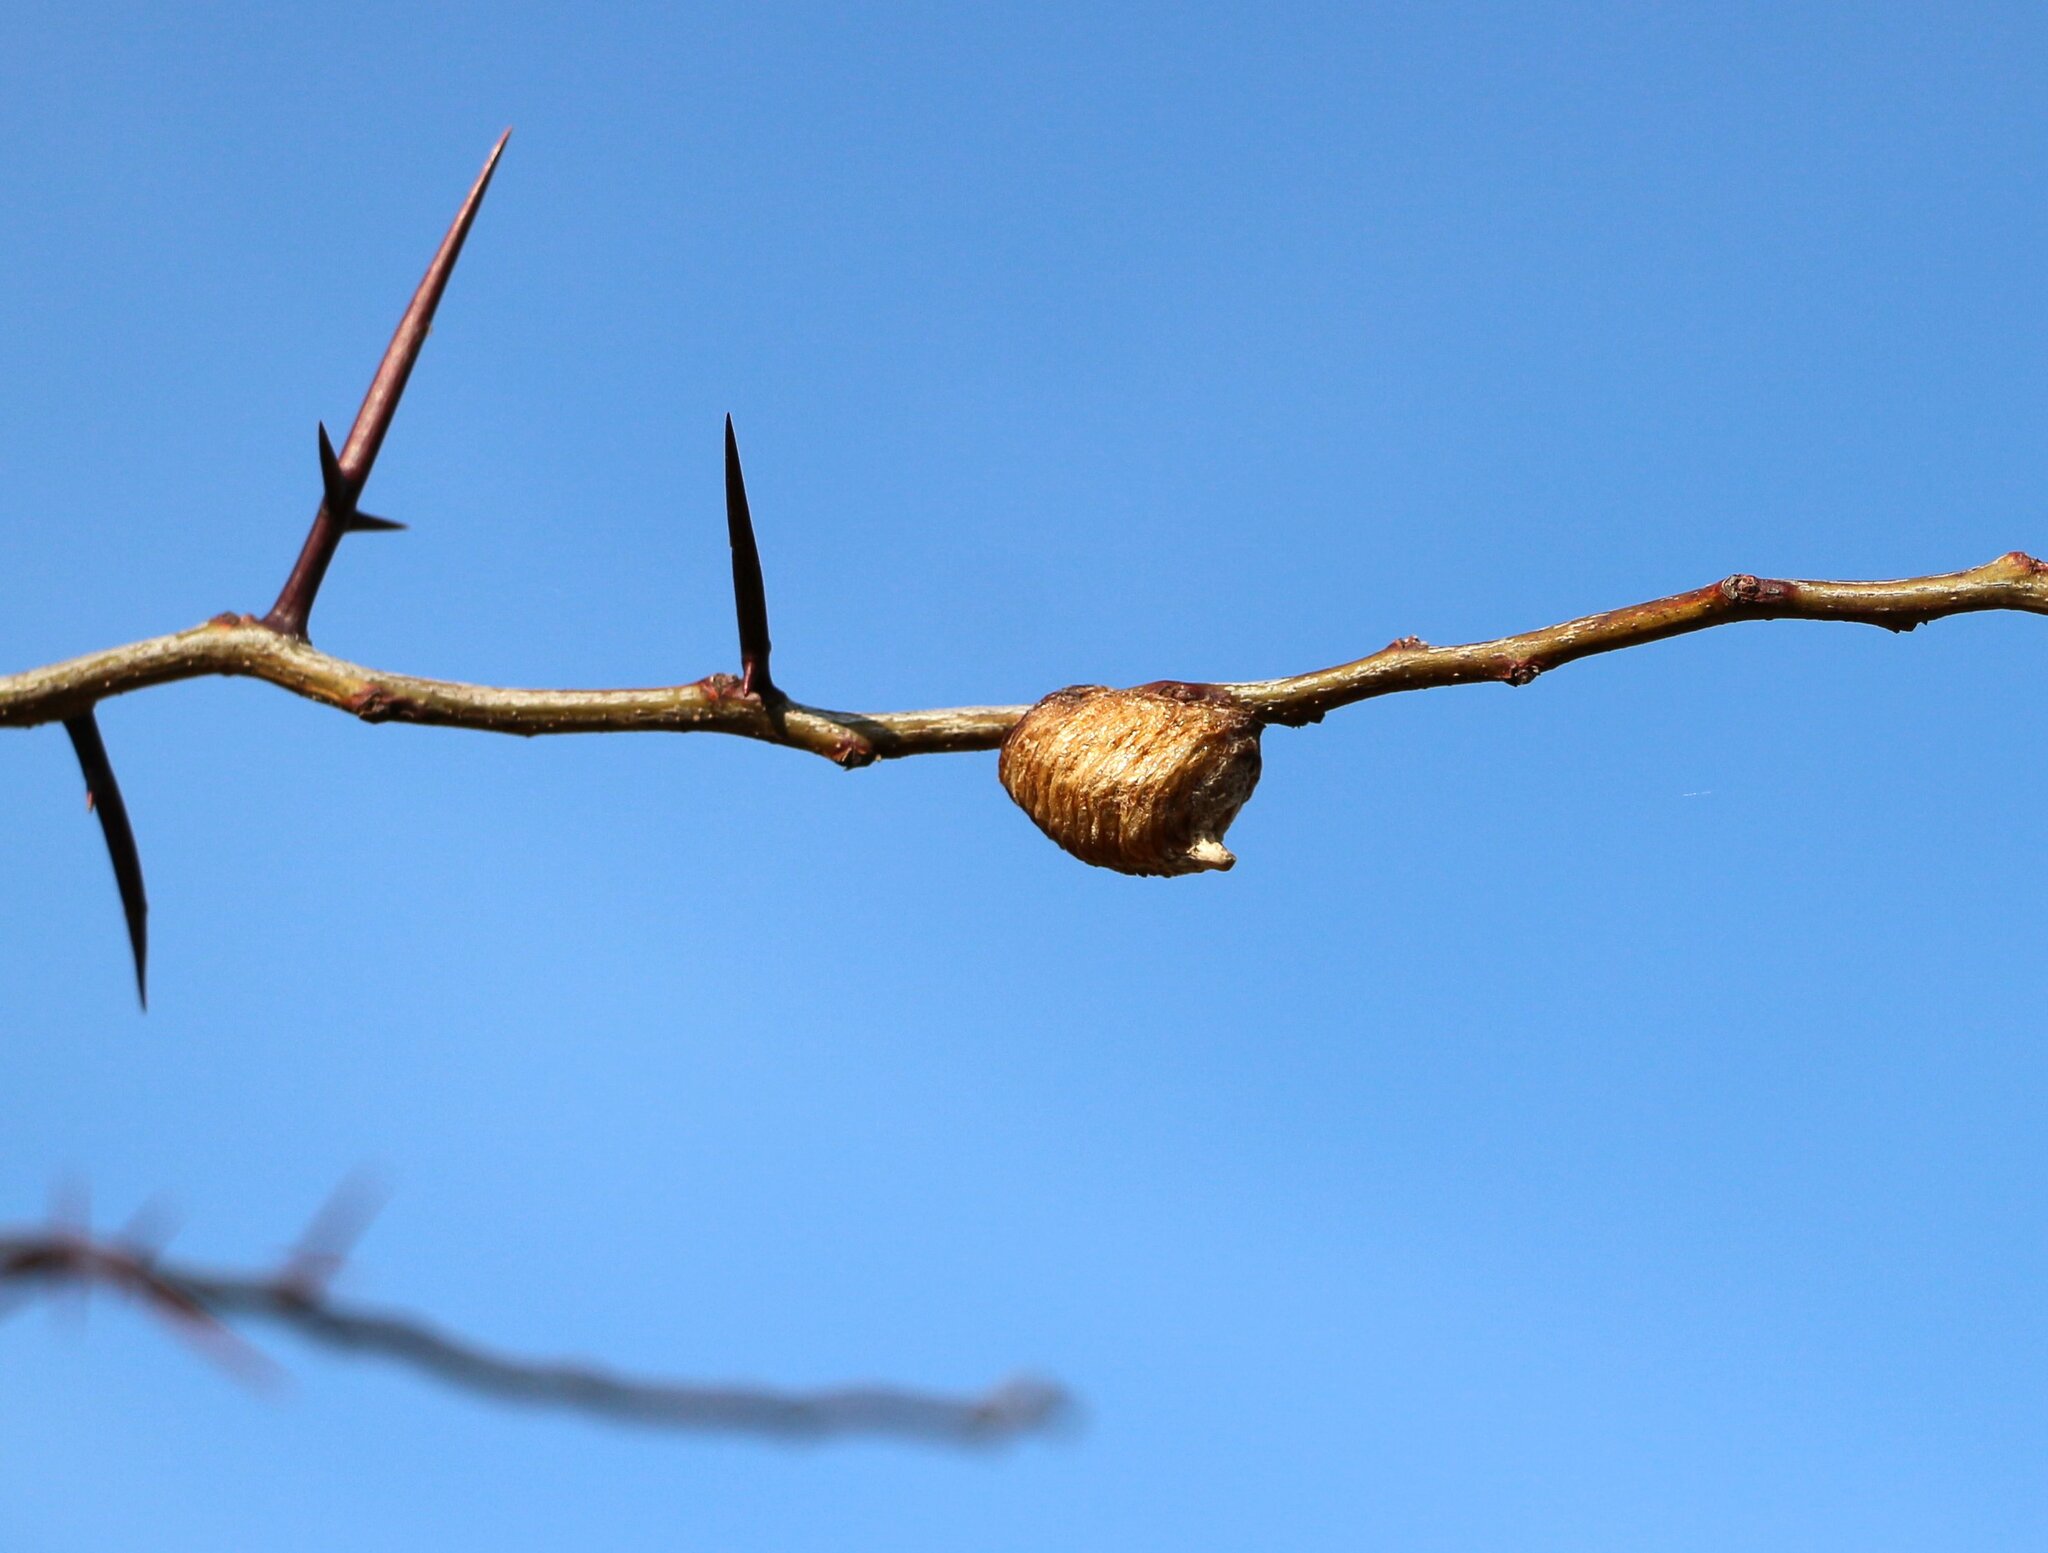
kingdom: Animalia
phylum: Arthropoda
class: Insecta
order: Mantodea
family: Mantidae
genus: Hierodula
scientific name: Hierodula transcaucasica
